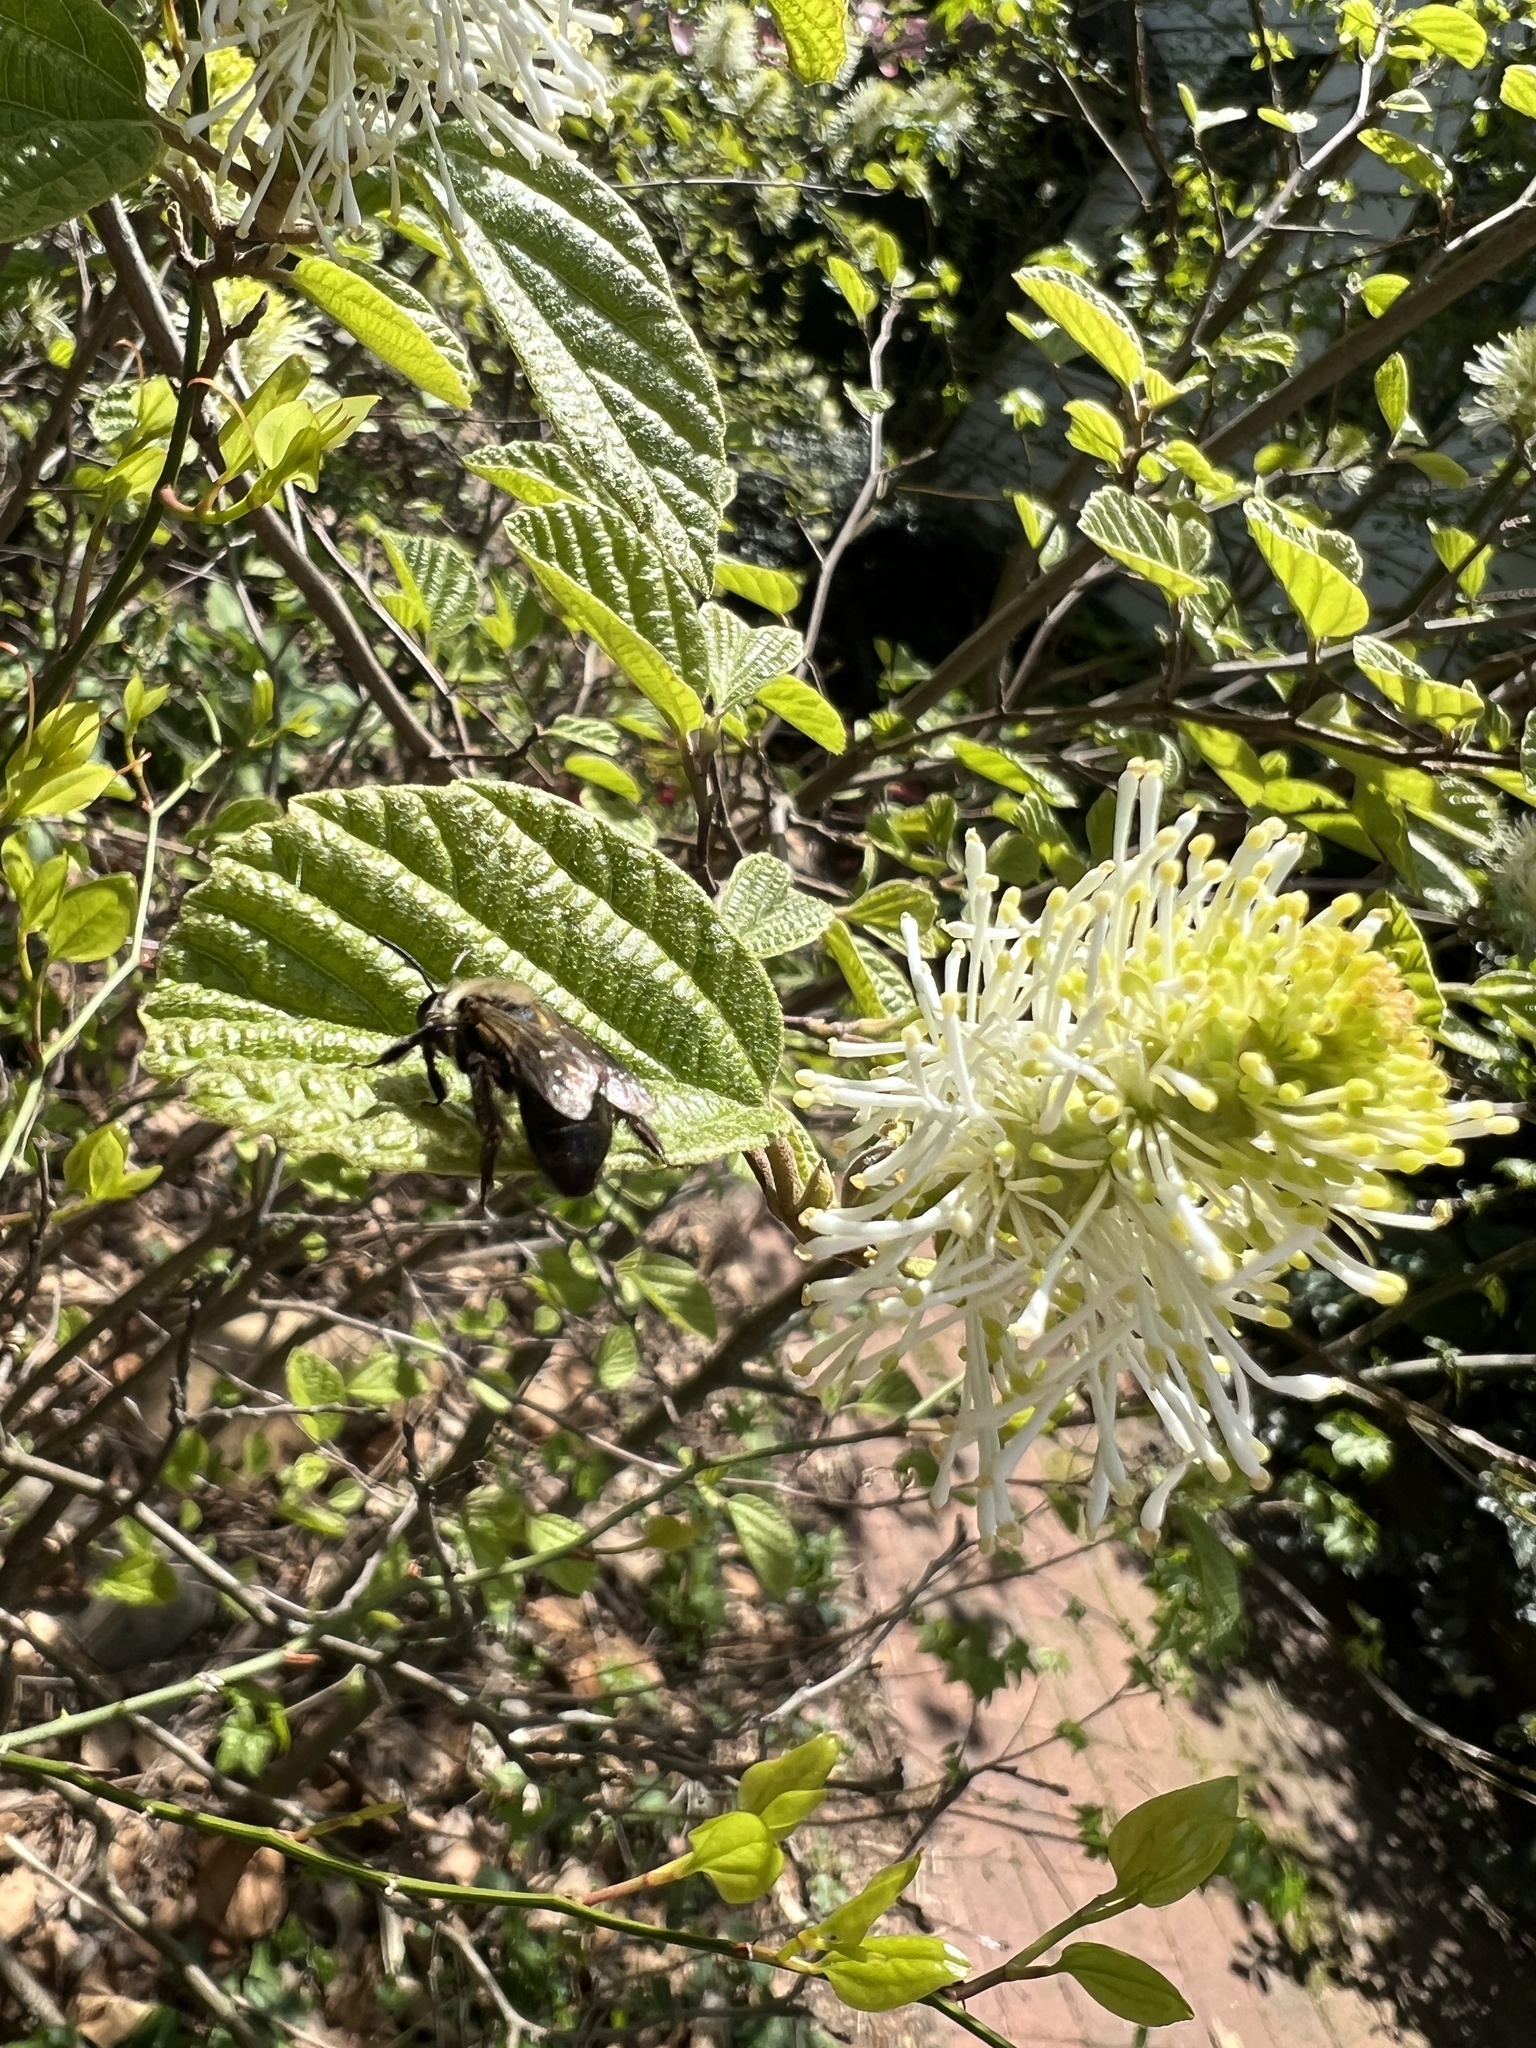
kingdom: Animalia
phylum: Arthropoda
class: Insecta
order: Hymenoptera
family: Andrenidae
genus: Andrena
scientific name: Andrena vicina
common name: Neighborly mining bee
